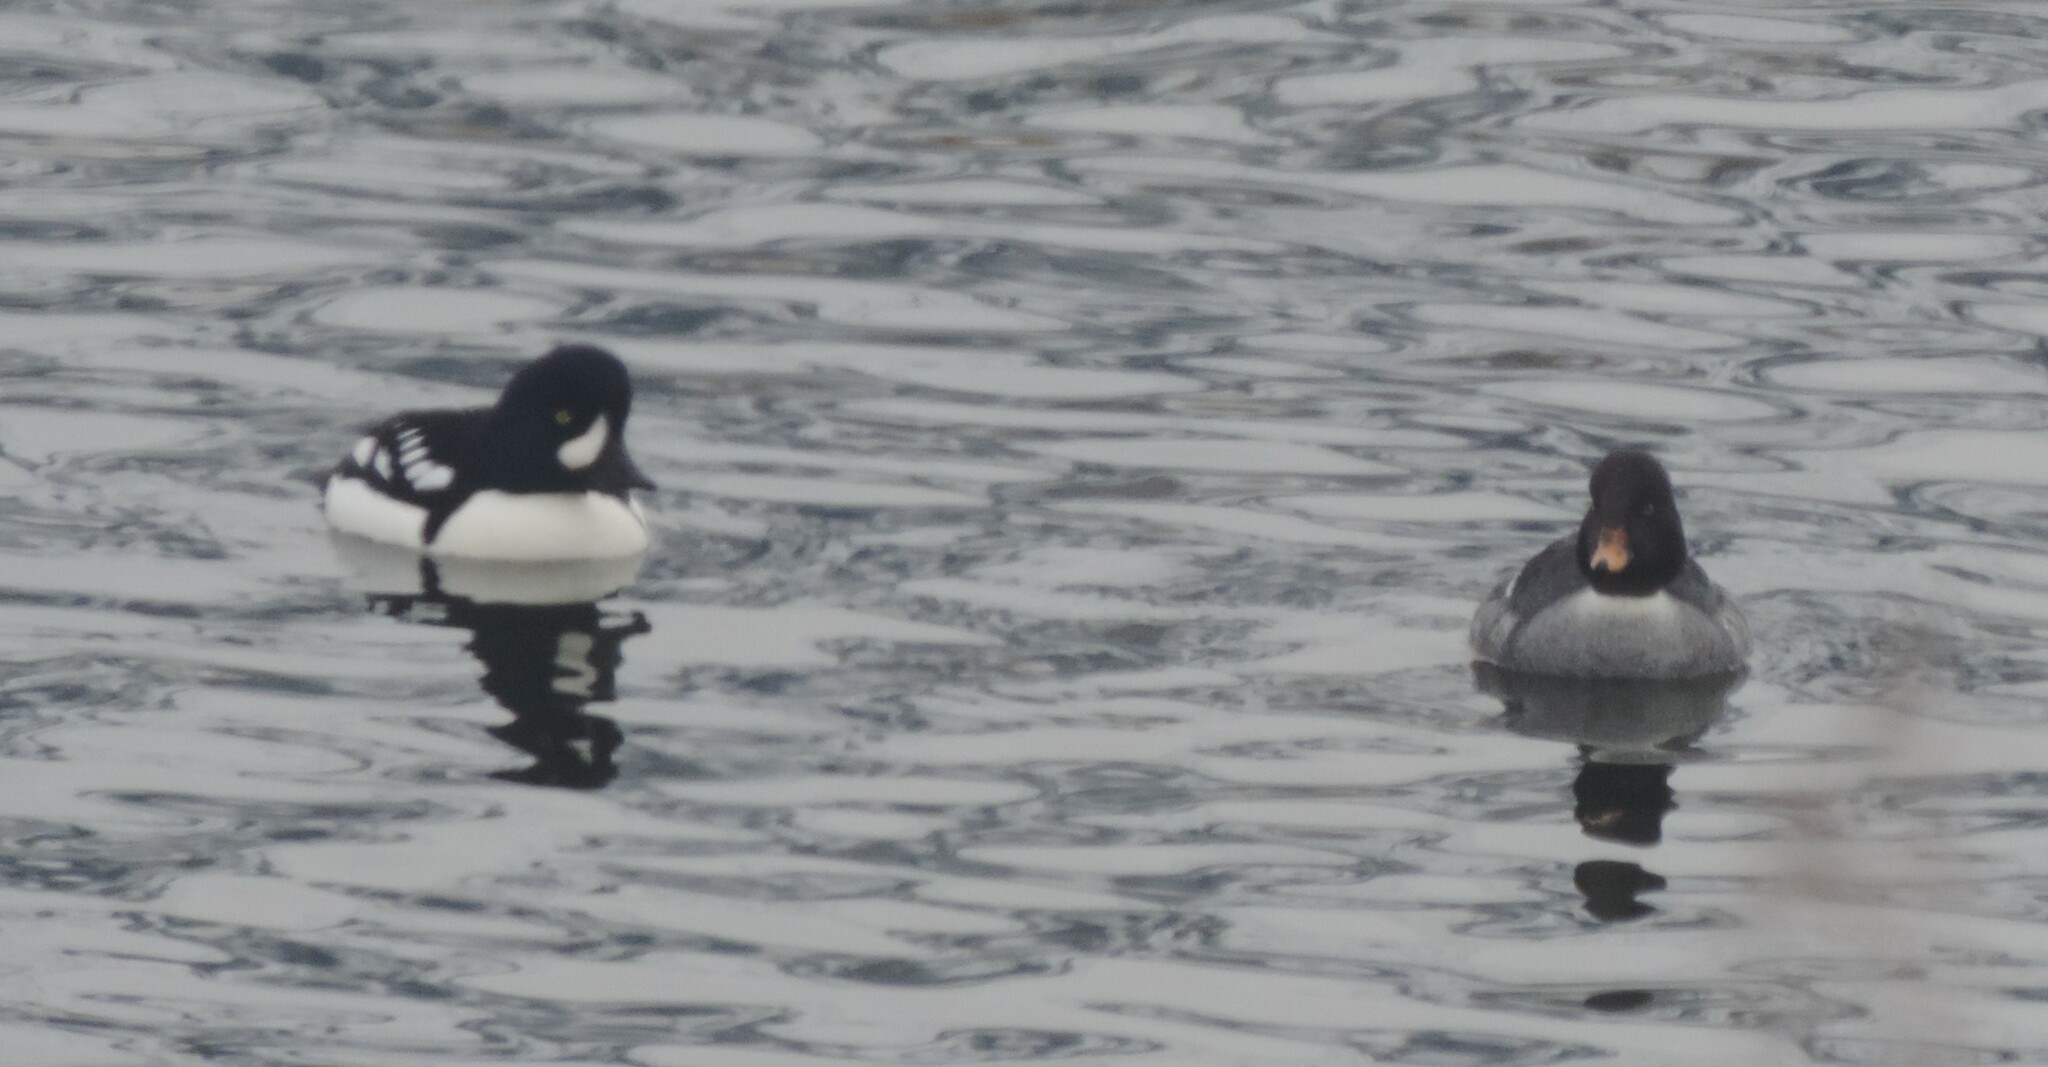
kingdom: Animalia
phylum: Chordata
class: Aves
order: Anseriformes
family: Anatidae
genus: Bucephala
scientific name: Bucephala islandica
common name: Barrow's goldeneye
